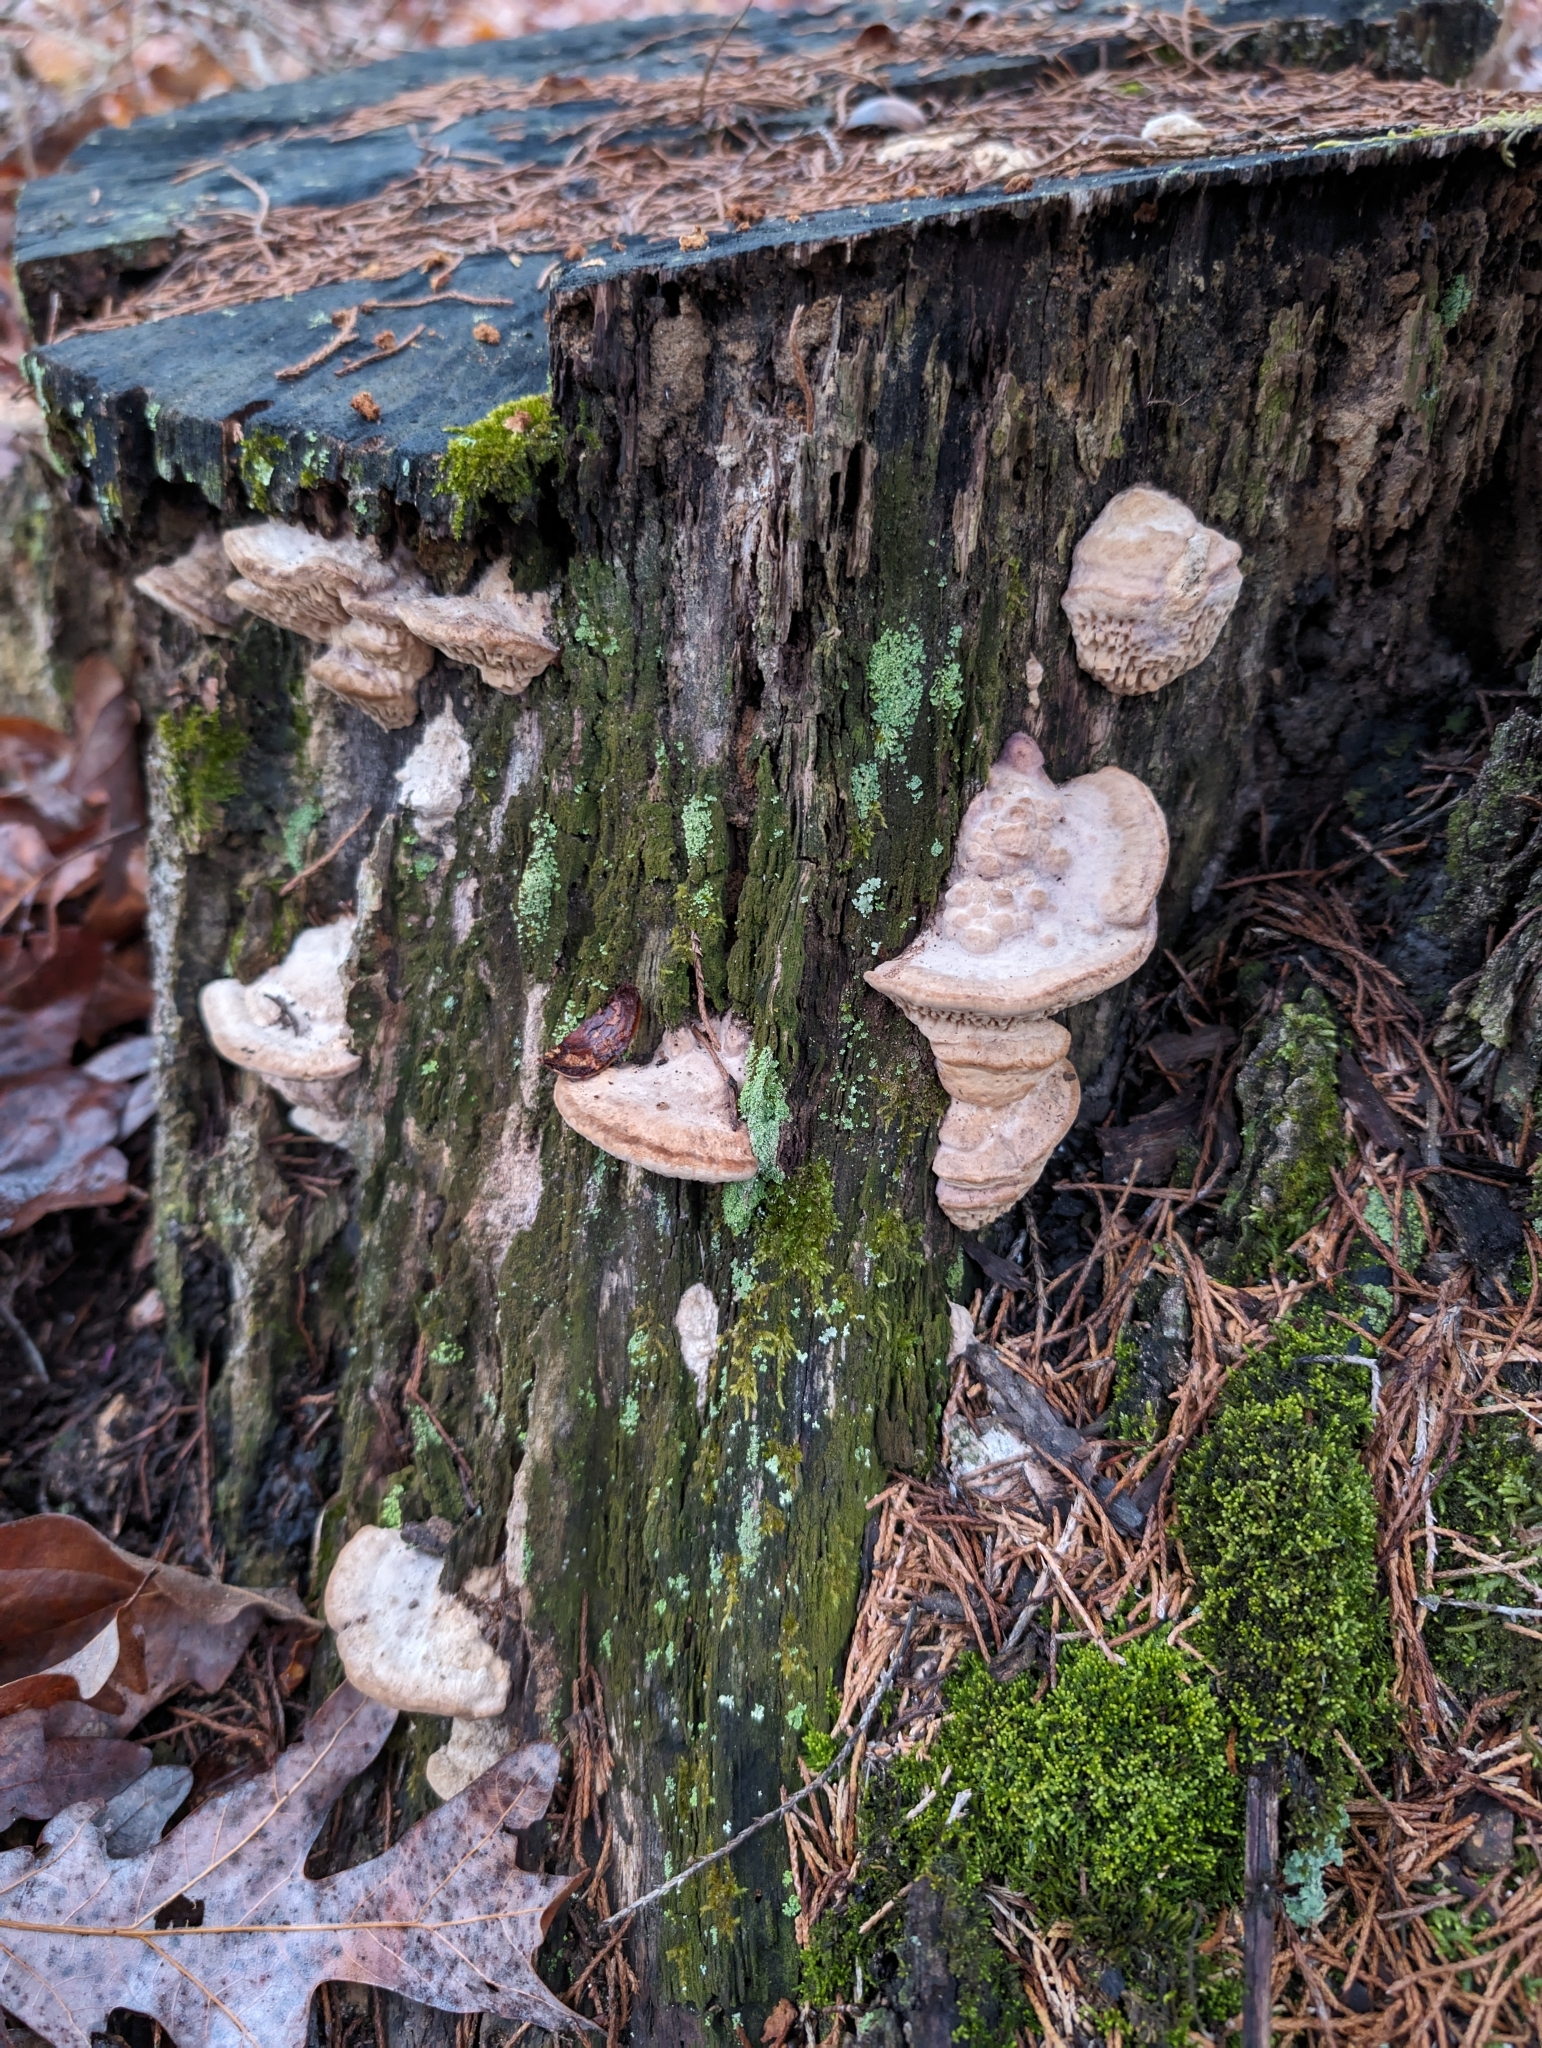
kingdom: Fungi
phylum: Basidiomycota
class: Agaricomycetes
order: Polyporales
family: Fomitopsidaceae
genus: Fomitopsis
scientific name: Fomitopsis
